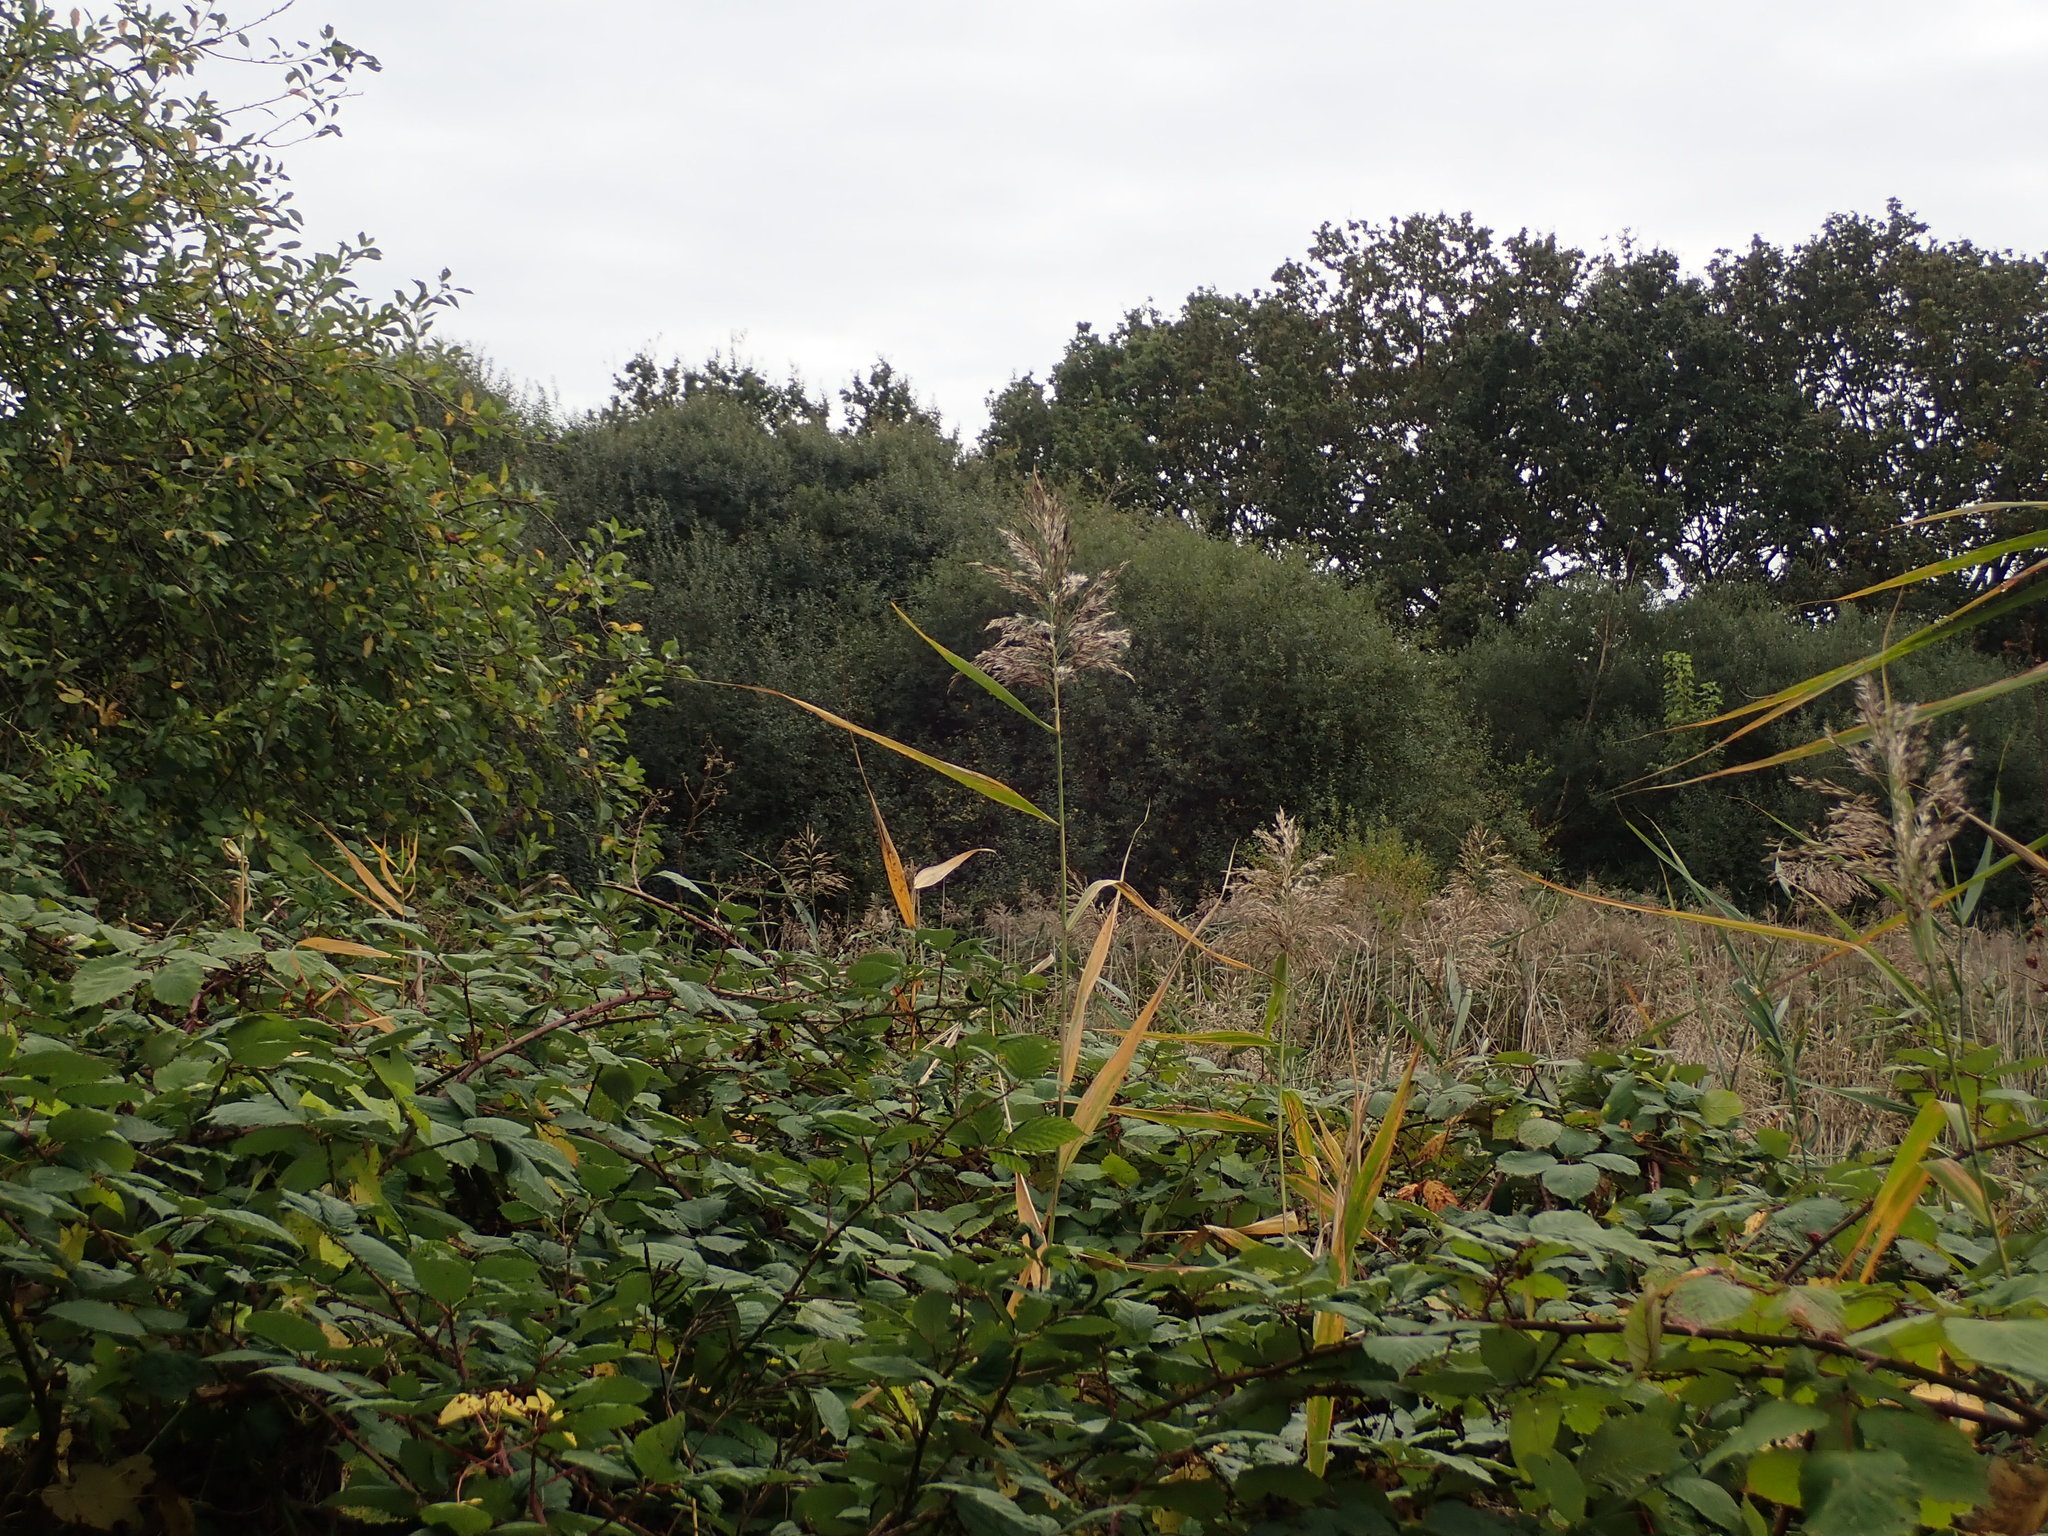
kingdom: Plantae
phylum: Tracheophyta
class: Liliopsida
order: Poales
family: Poaceae
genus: Phragmites
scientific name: Phragmites australis
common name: Common reed
